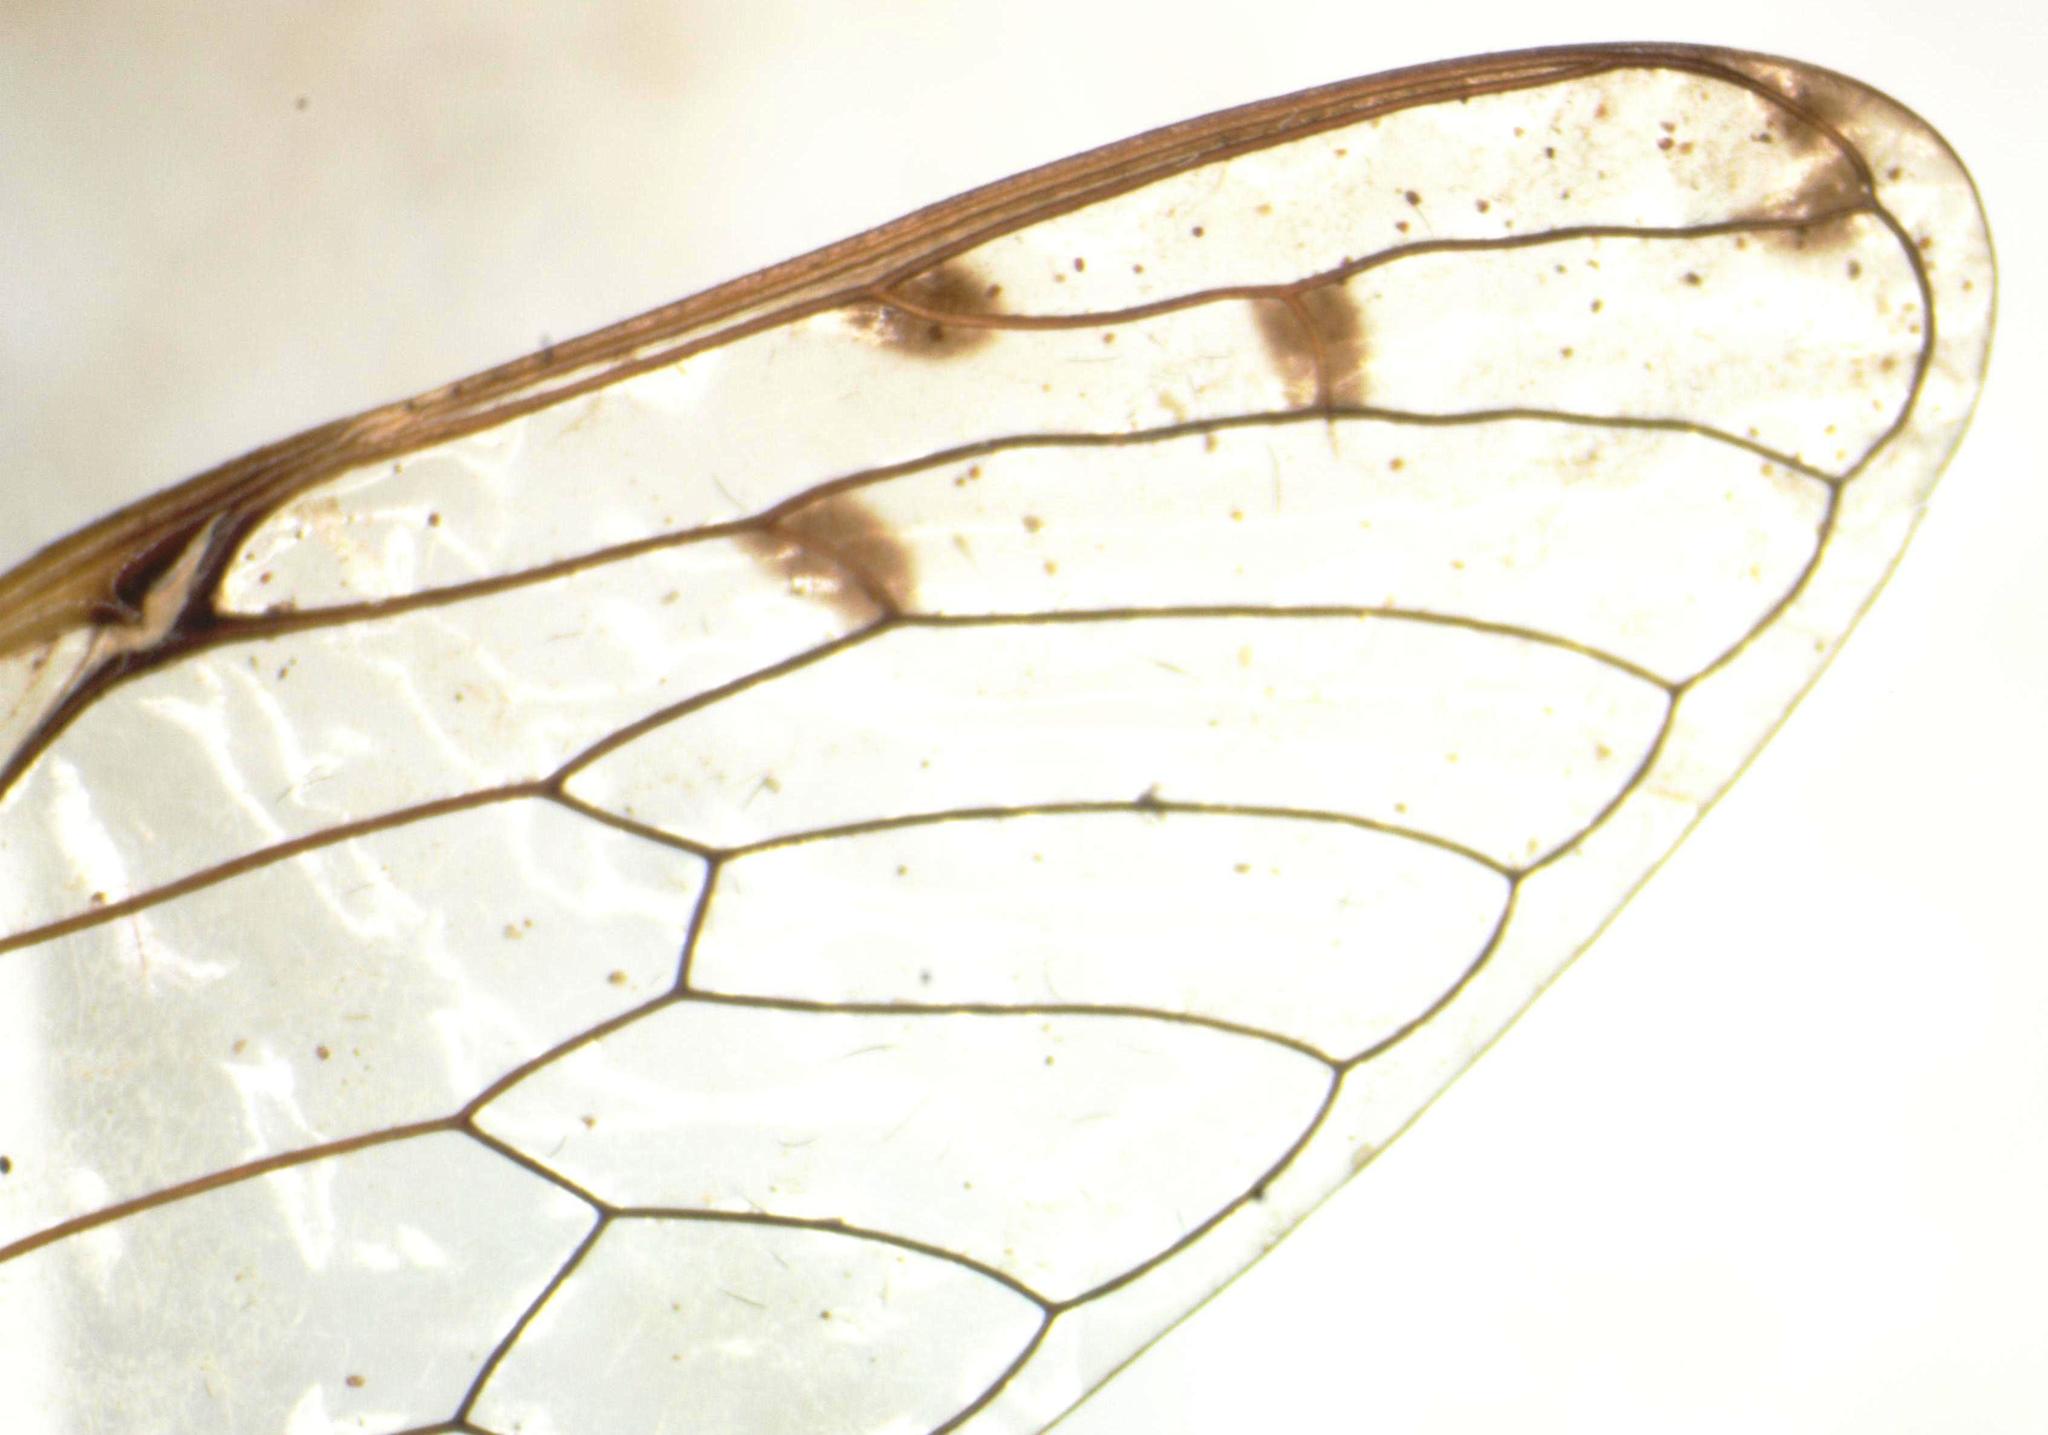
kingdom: Animalia
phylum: Arthropoda
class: Insecta
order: Hemiptera
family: Cicadidae
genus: Pacarina
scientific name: Pacarina schumanni
